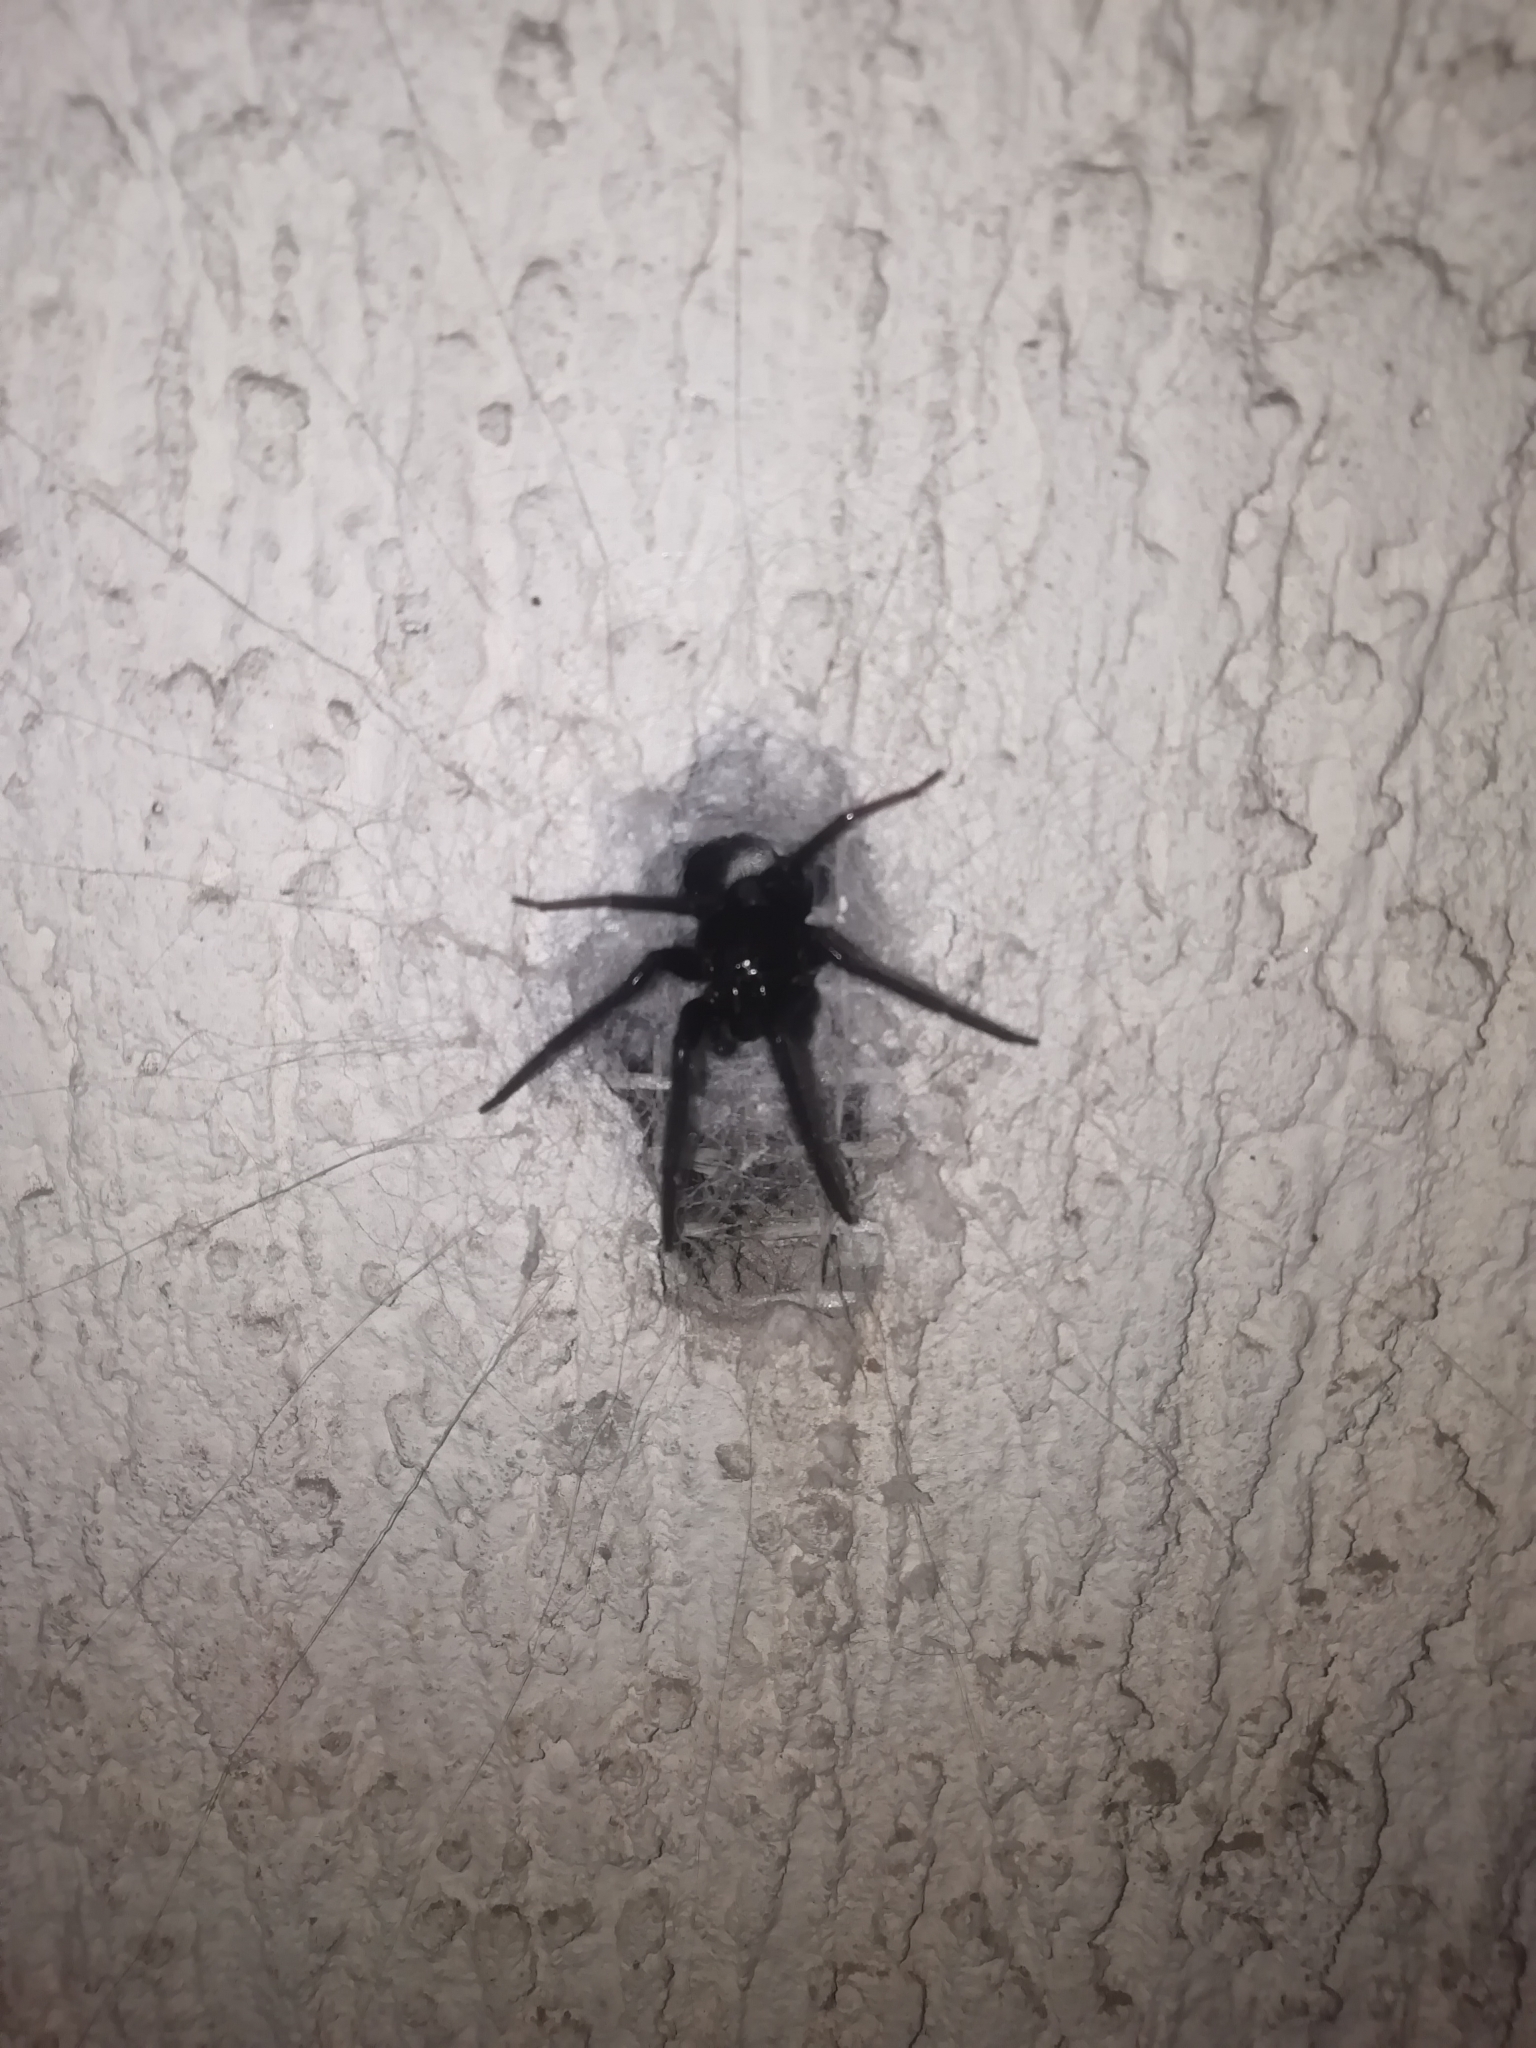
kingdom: Animalia
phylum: Arthropoda
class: Arachnida
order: Araneae
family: Segestriidae
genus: Segestria
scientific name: Segestria florentina
